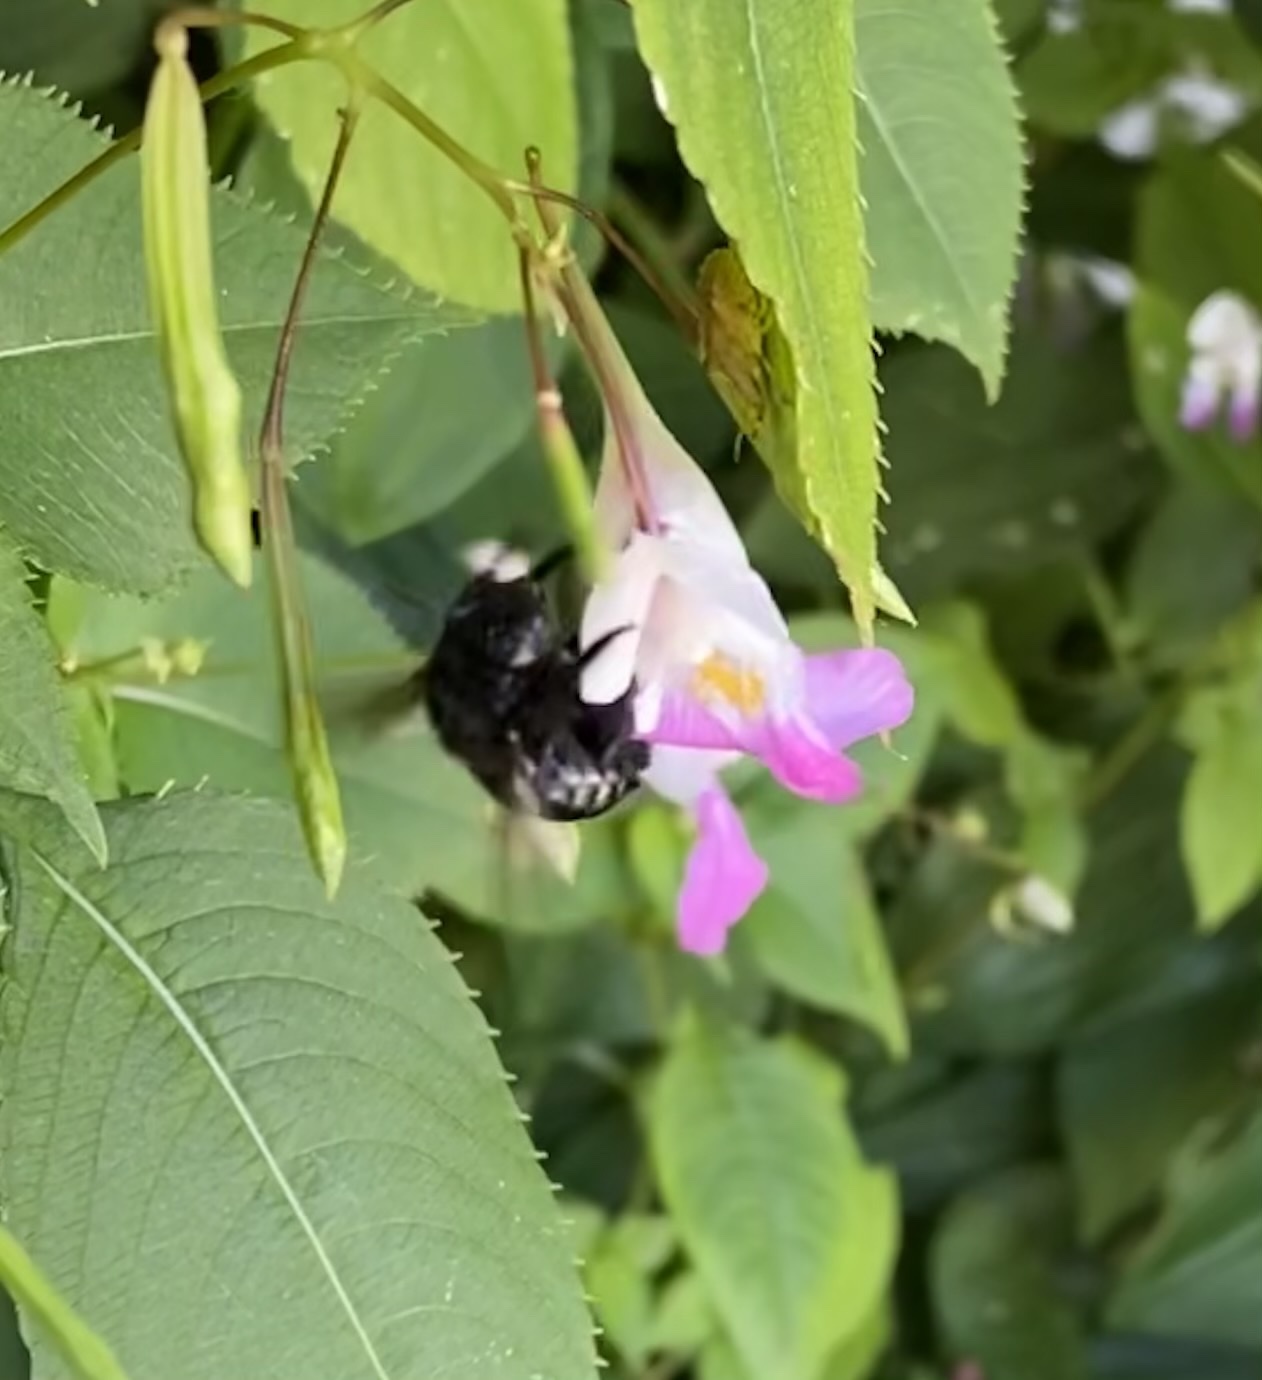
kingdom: Animalia
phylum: Arthropoda
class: Insecta
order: Hymenoptera
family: Apidae
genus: Xylocopa
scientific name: Xylocopa tabaniformis
